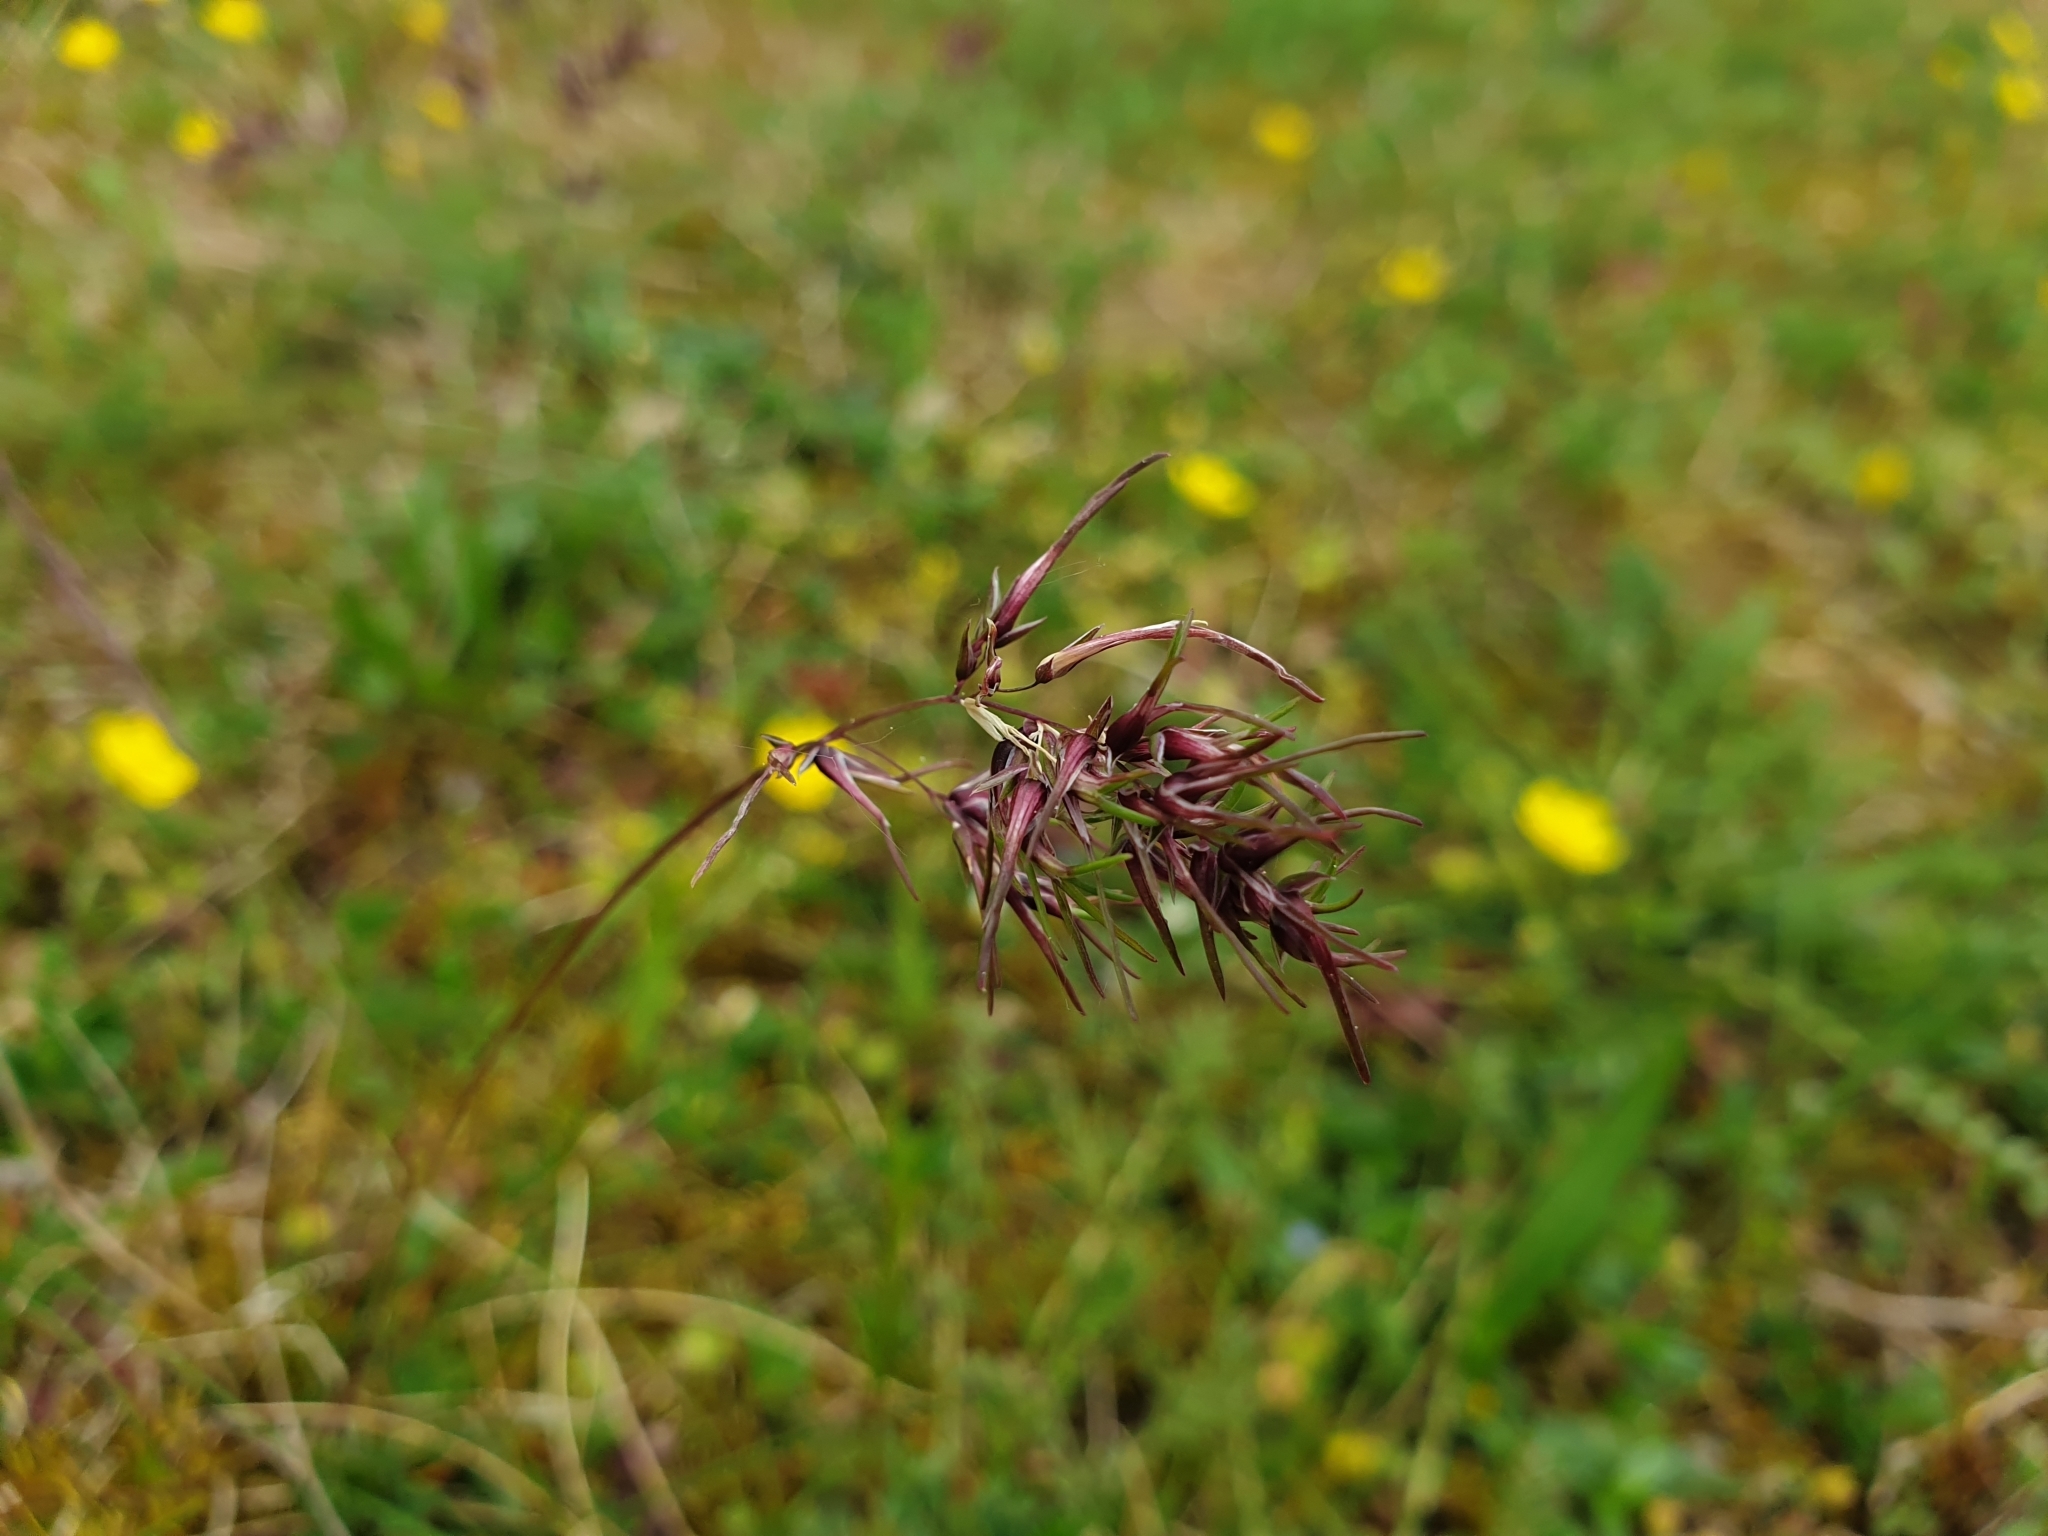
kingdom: Plantae
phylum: Tracheophyta
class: Liliopsida
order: Poales
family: Poaceae
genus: Poa
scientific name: Poa bulbosa
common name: Bulbous bluegrass
